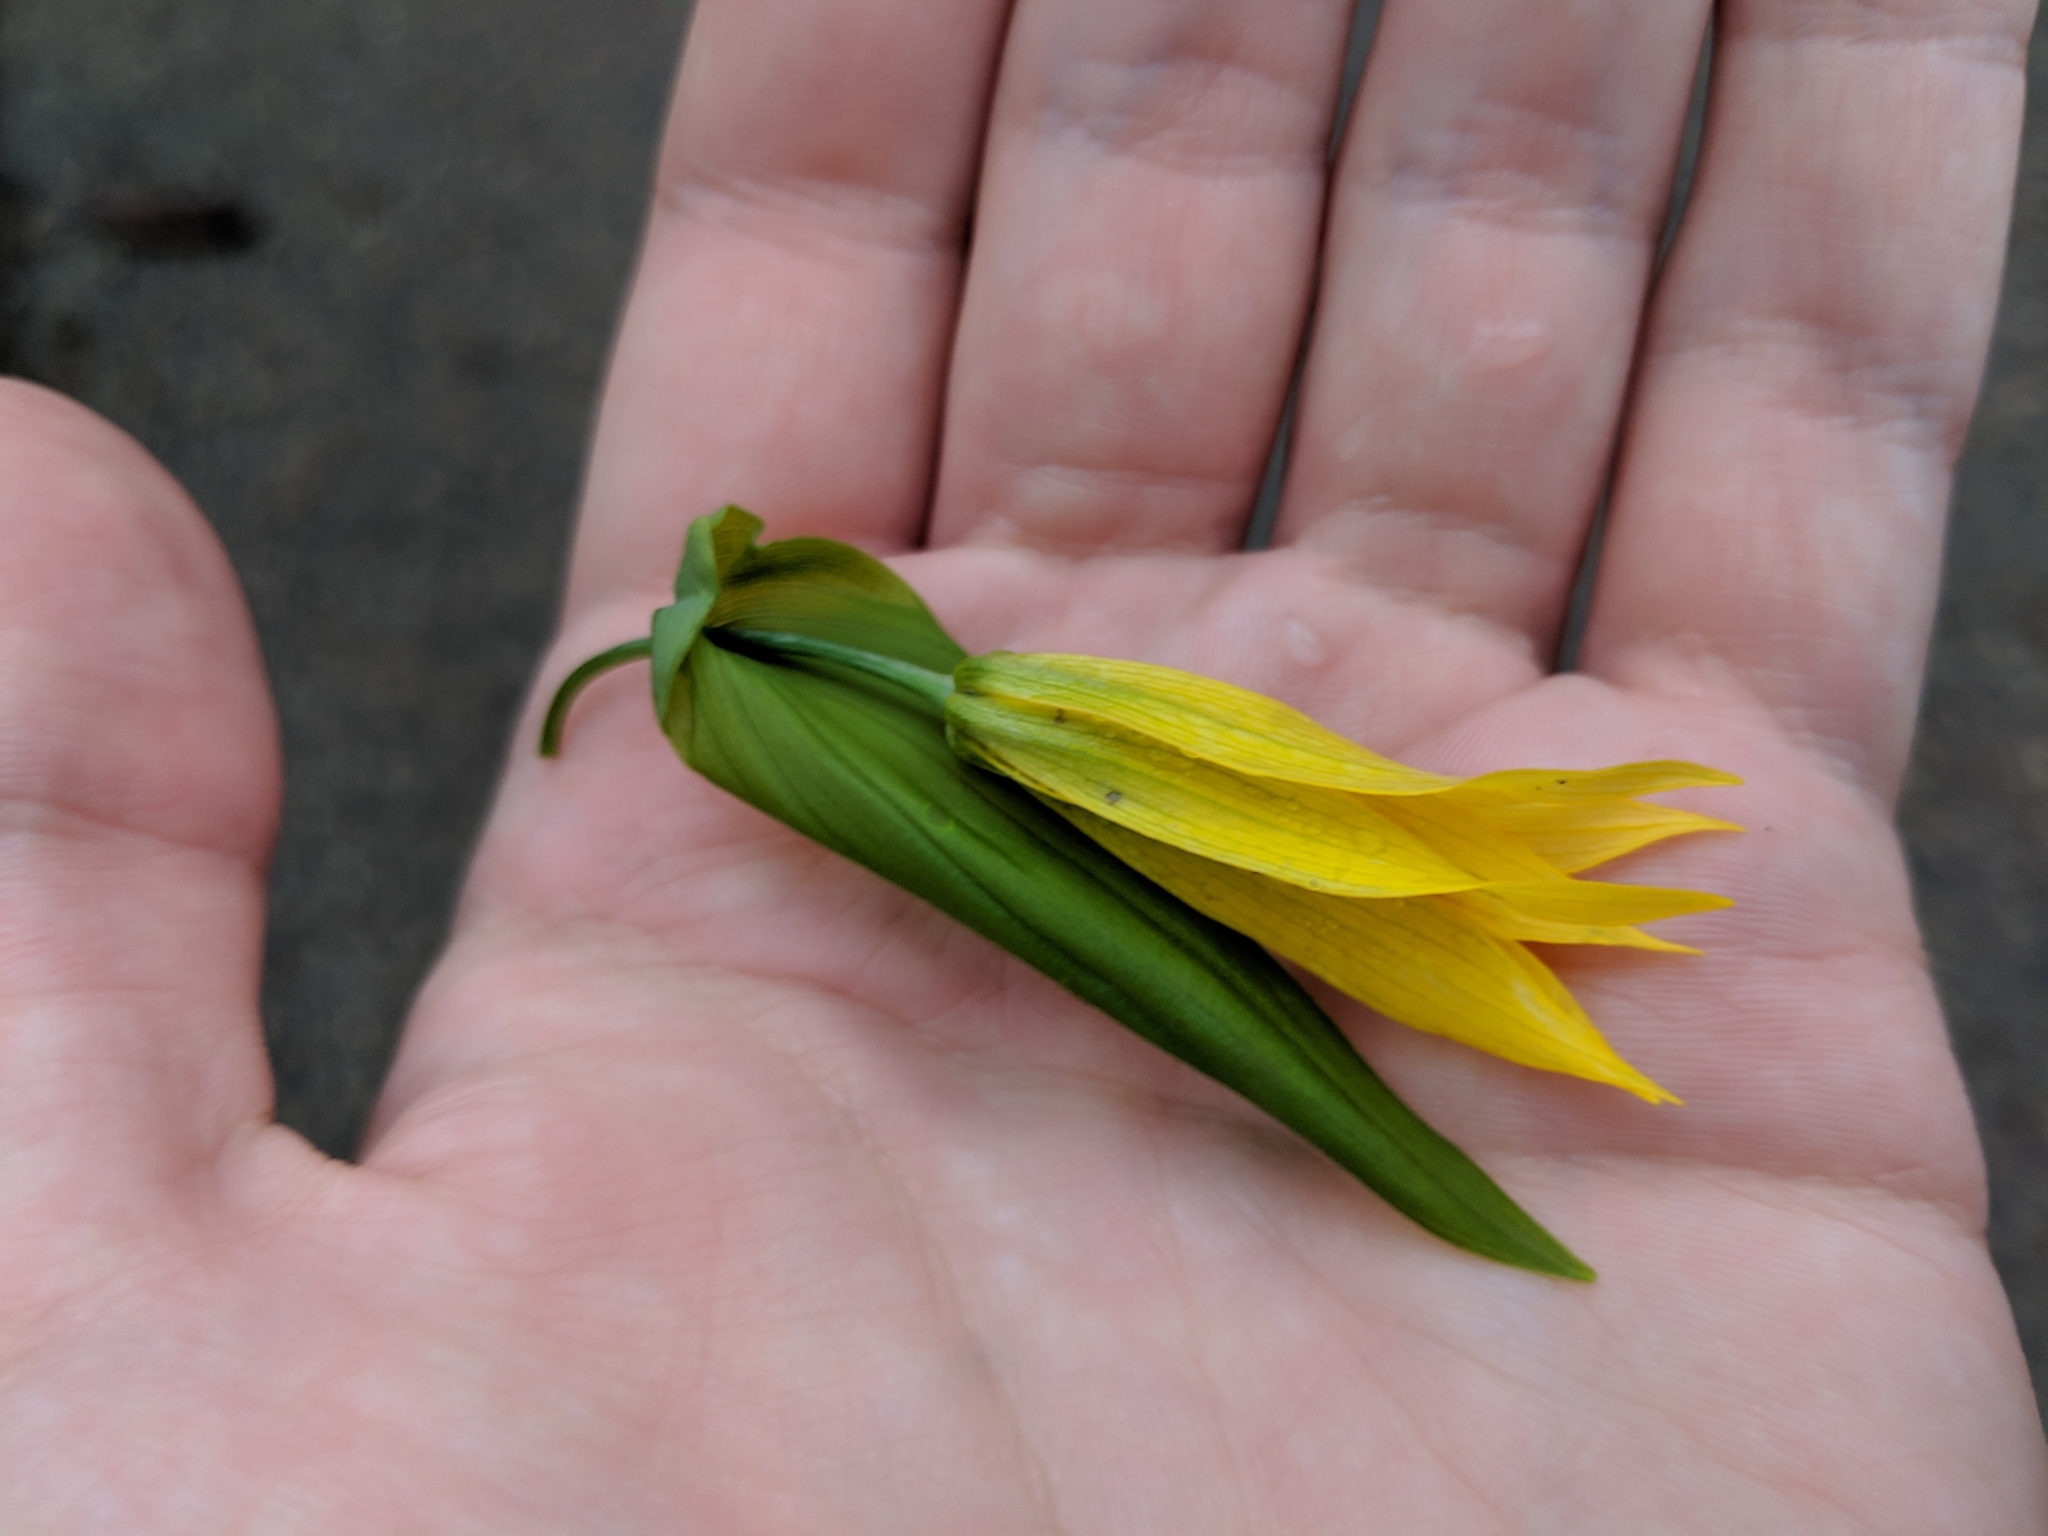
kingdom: Plantae
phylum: Tracheophyta
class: Liliopsida
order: Liliales
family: Colchicaceae
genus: Uvularia
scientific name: Uvularia grandiflora
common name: Bellwort
